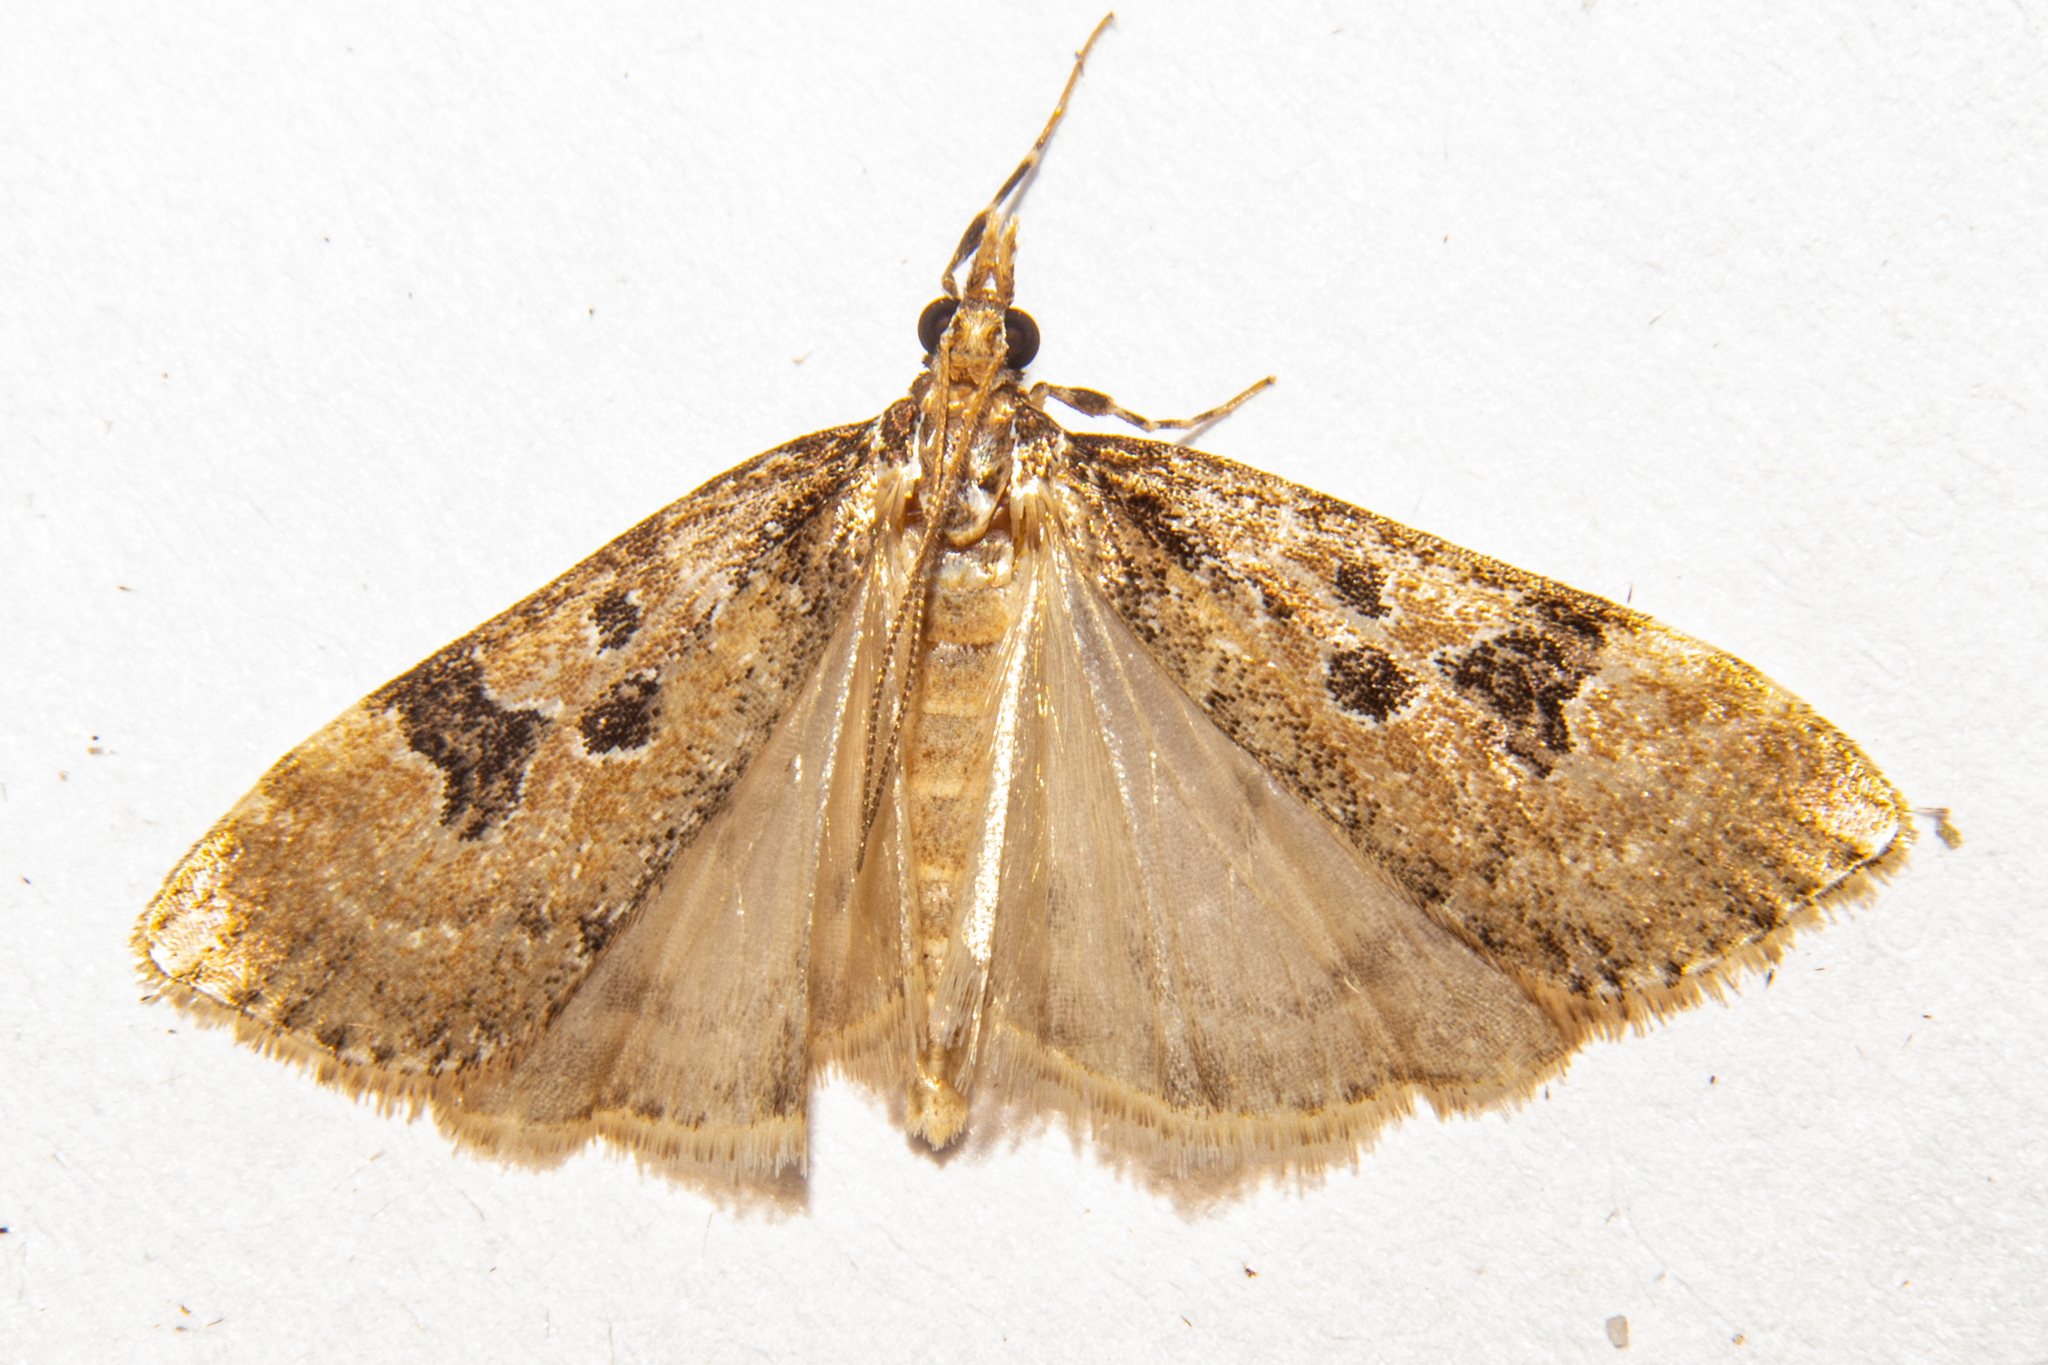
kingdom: Animalia
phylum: Arthropoda
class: Insecta
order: Lepidoptera
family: Crambidae
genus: Scoparia
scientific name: Scoparia ustimacula
